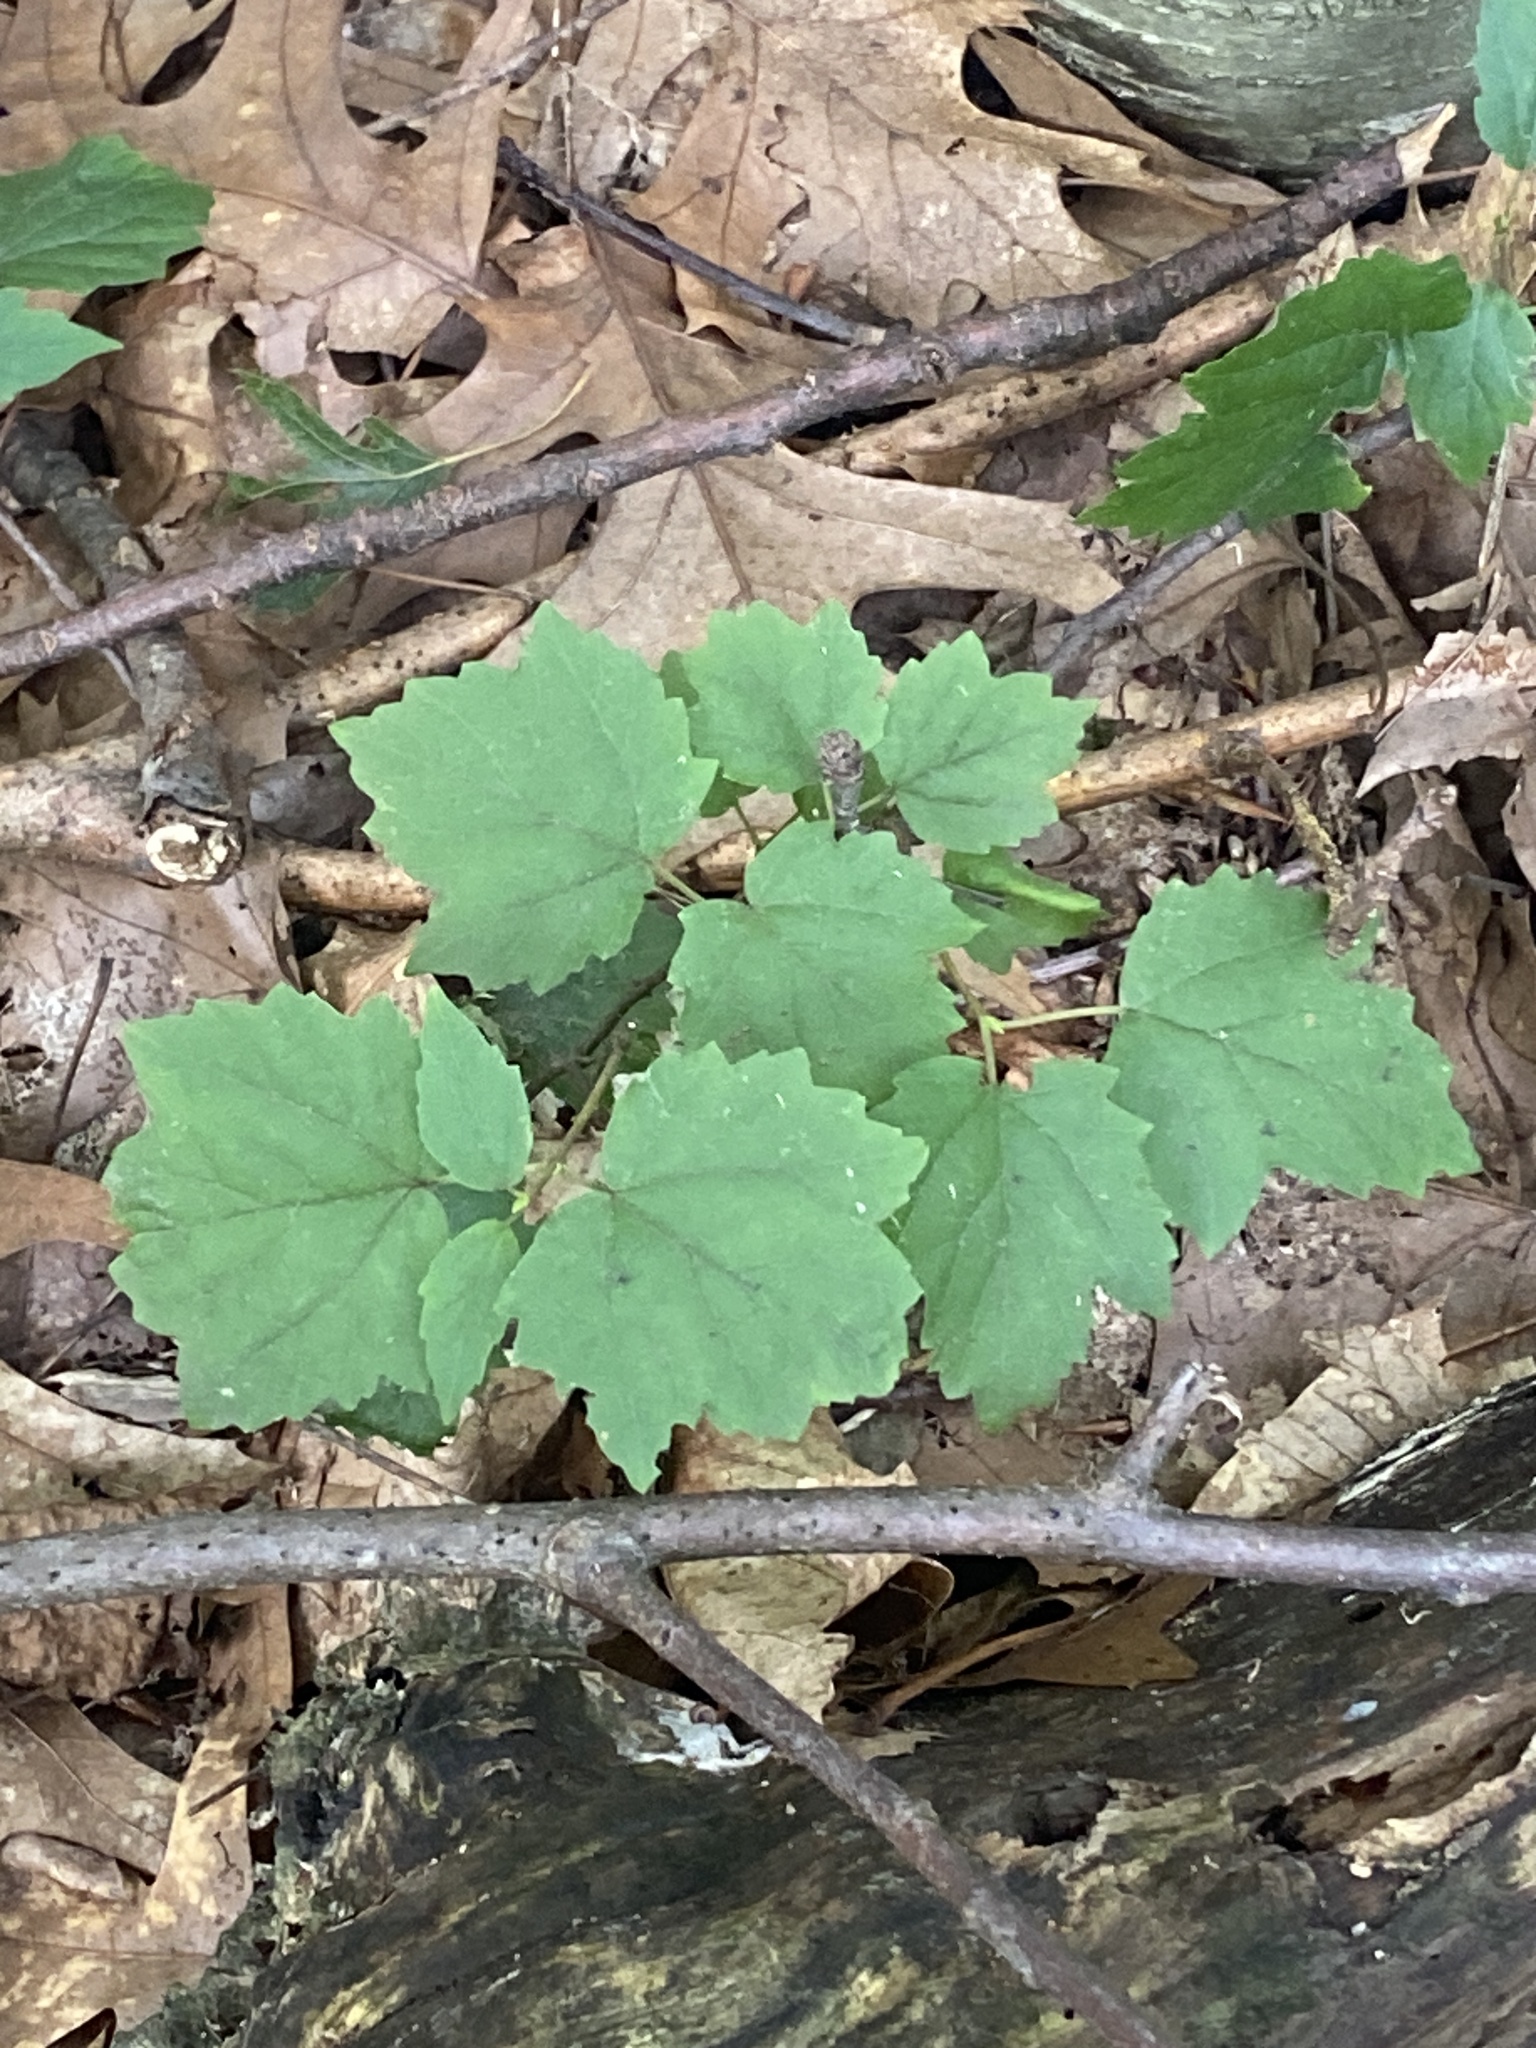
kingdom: Plantae
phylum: Tracheophyta
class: Magnoliopsida
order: Dipsacales
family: Viburnaceae
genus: Viburnum
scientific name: Viburnum acerifolium
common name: Dockmackie
